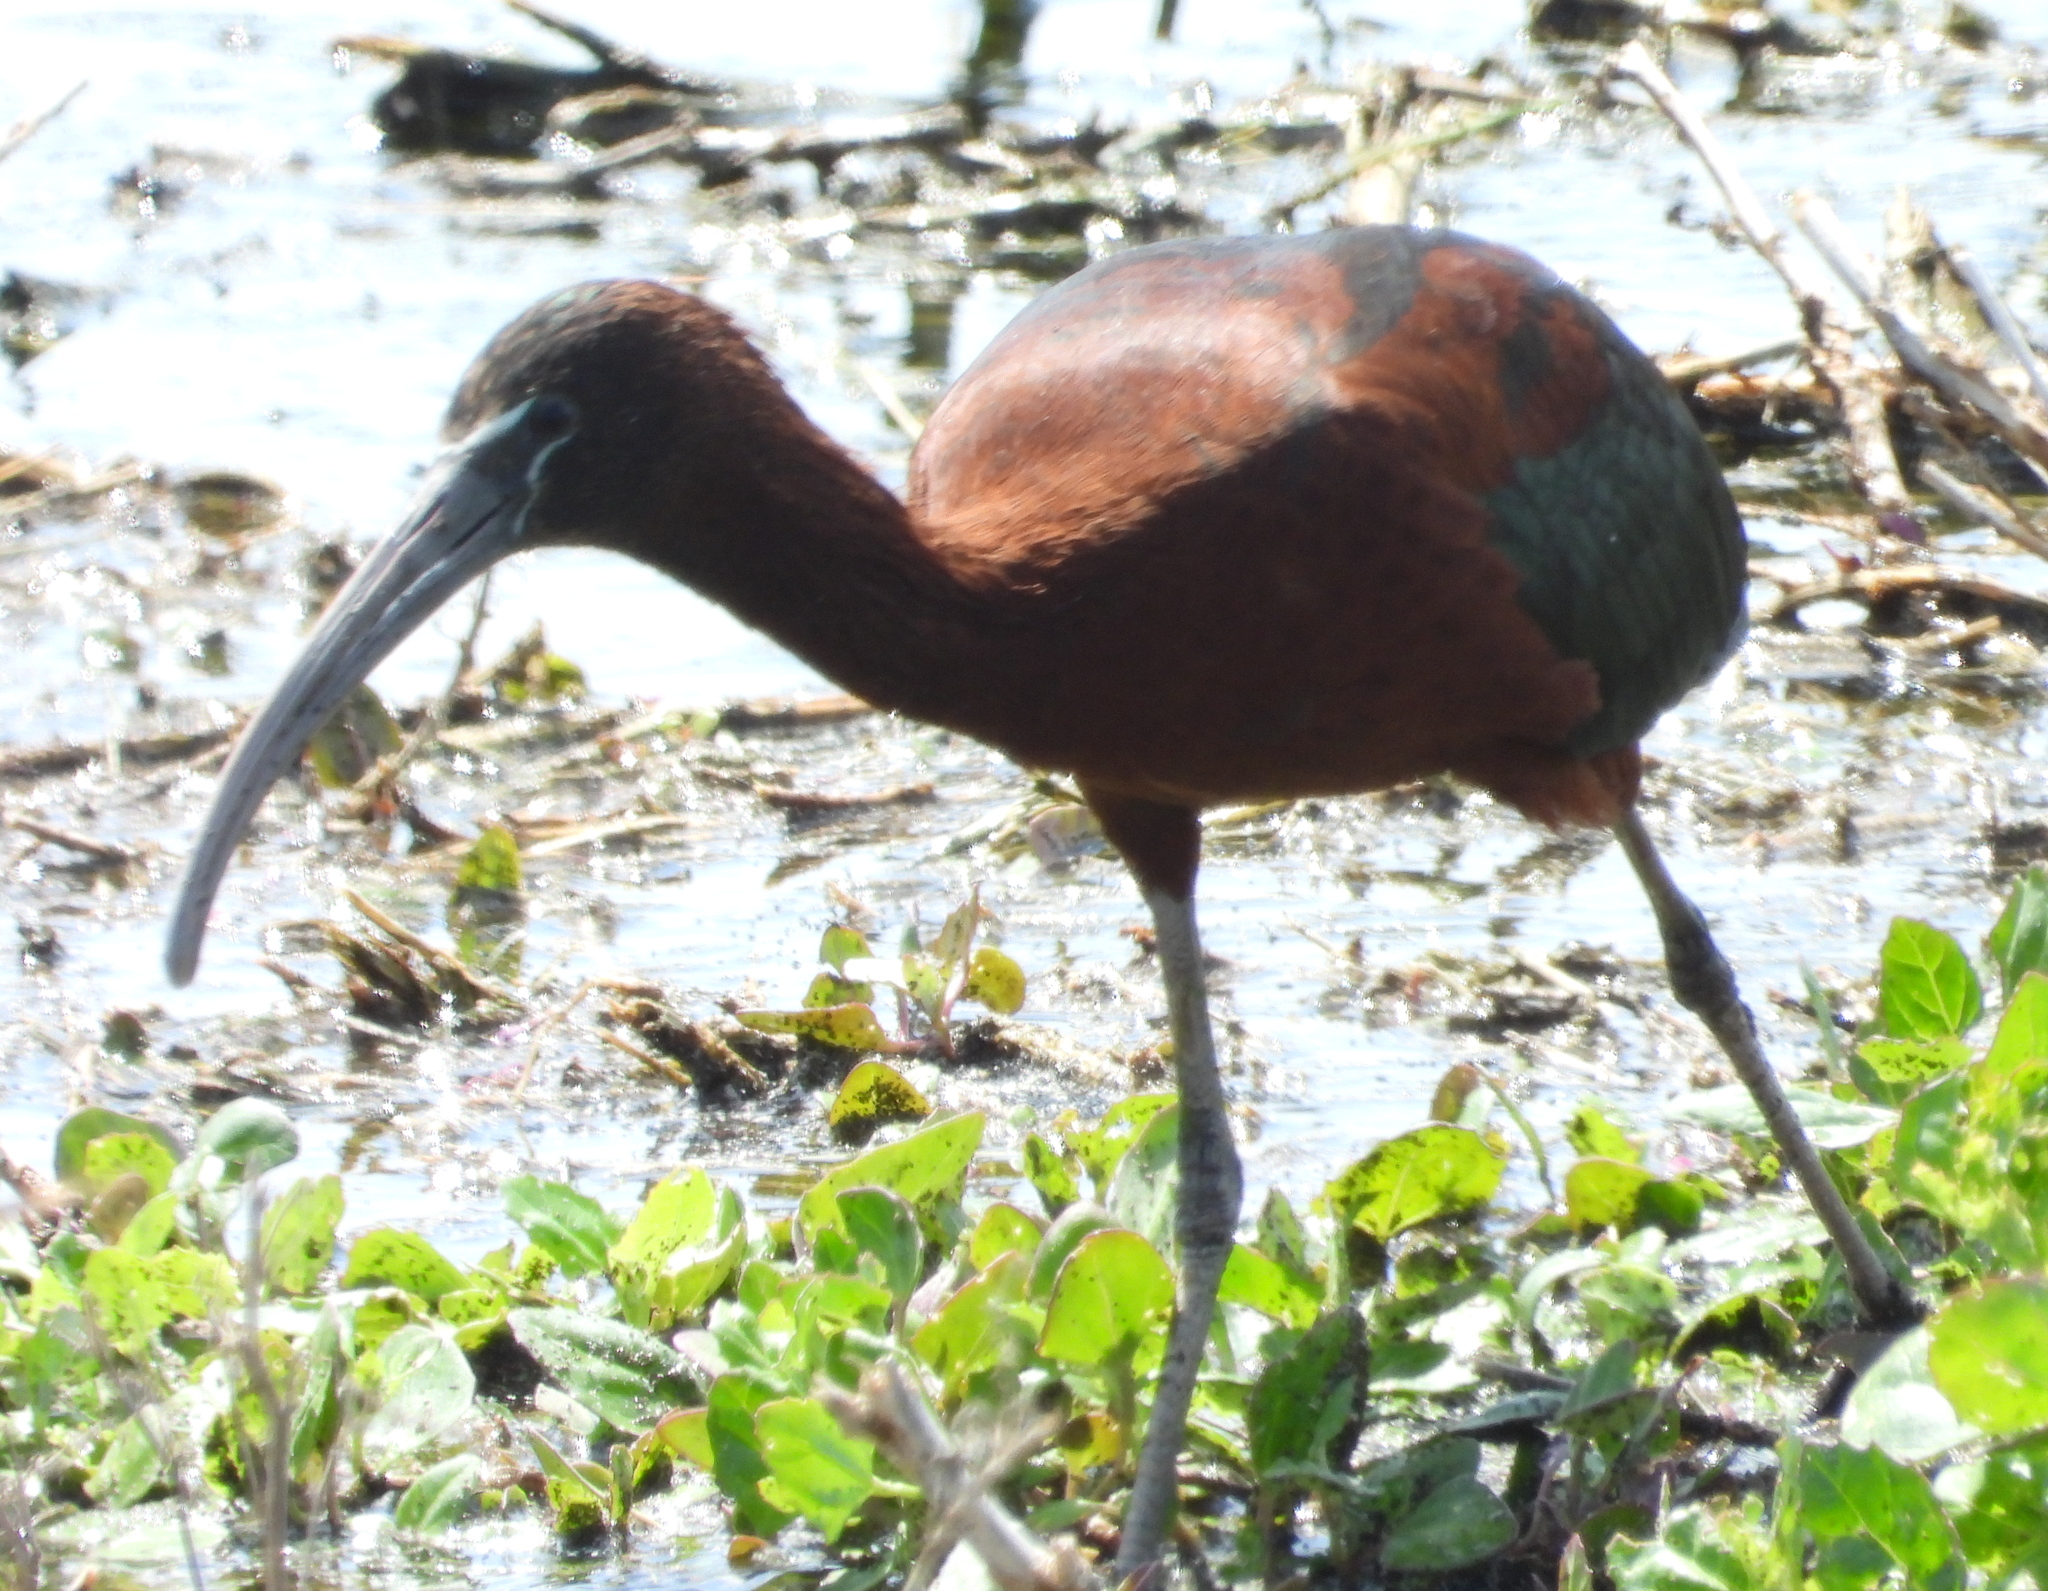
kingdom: Animalia
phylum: Chordata
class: Aves
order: Pelecaniformes
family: Threskiornithidae
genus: Plegadis
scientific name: Plegadis falcinellus
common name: Glossy ibis
